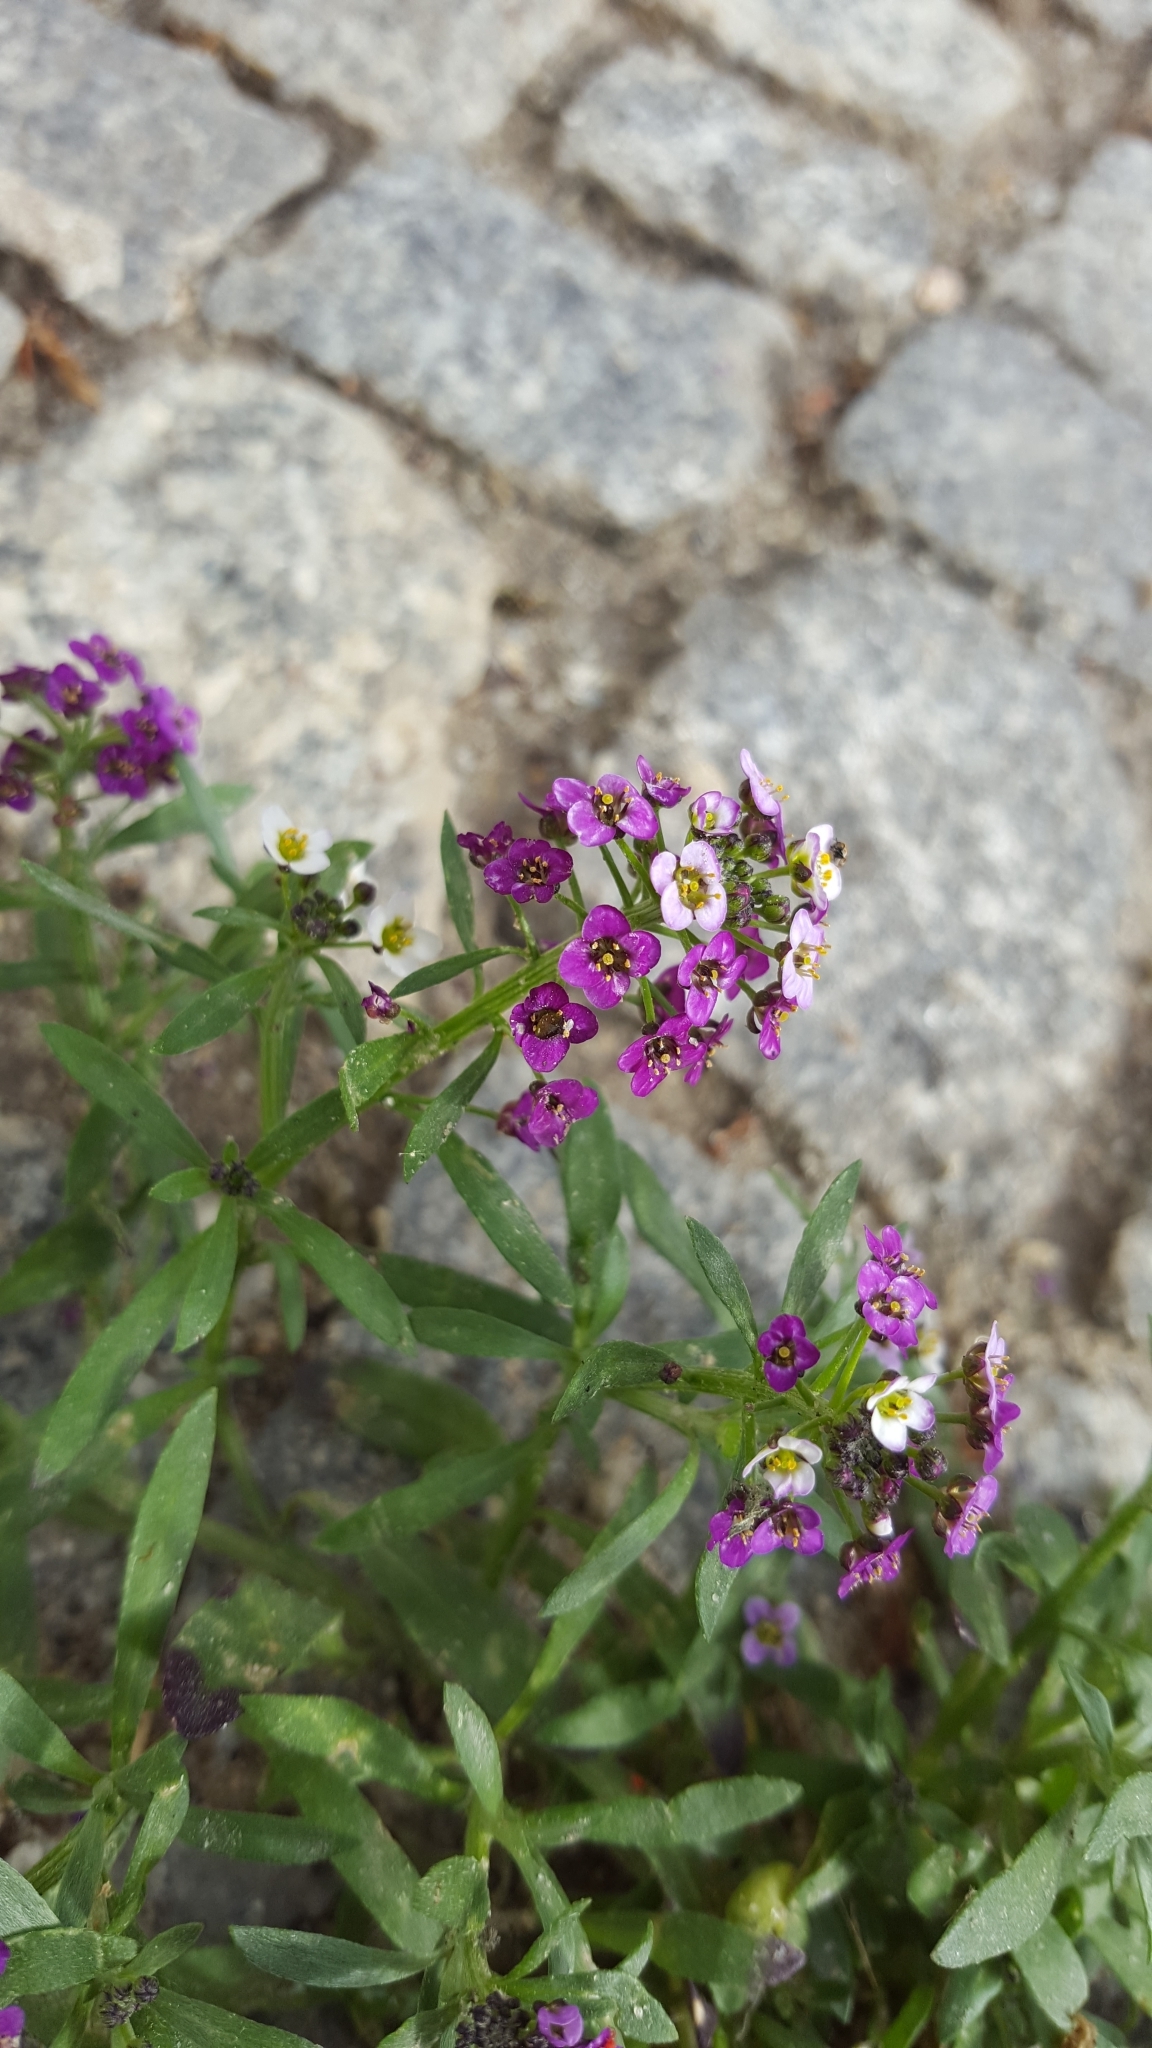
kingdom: Plantae
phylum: Tracheophyta
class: Magnoliopsida
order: Brassicales
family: Brassicaceae
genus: Lobularia
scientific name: Lobularia maritima
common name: Sweet alison
